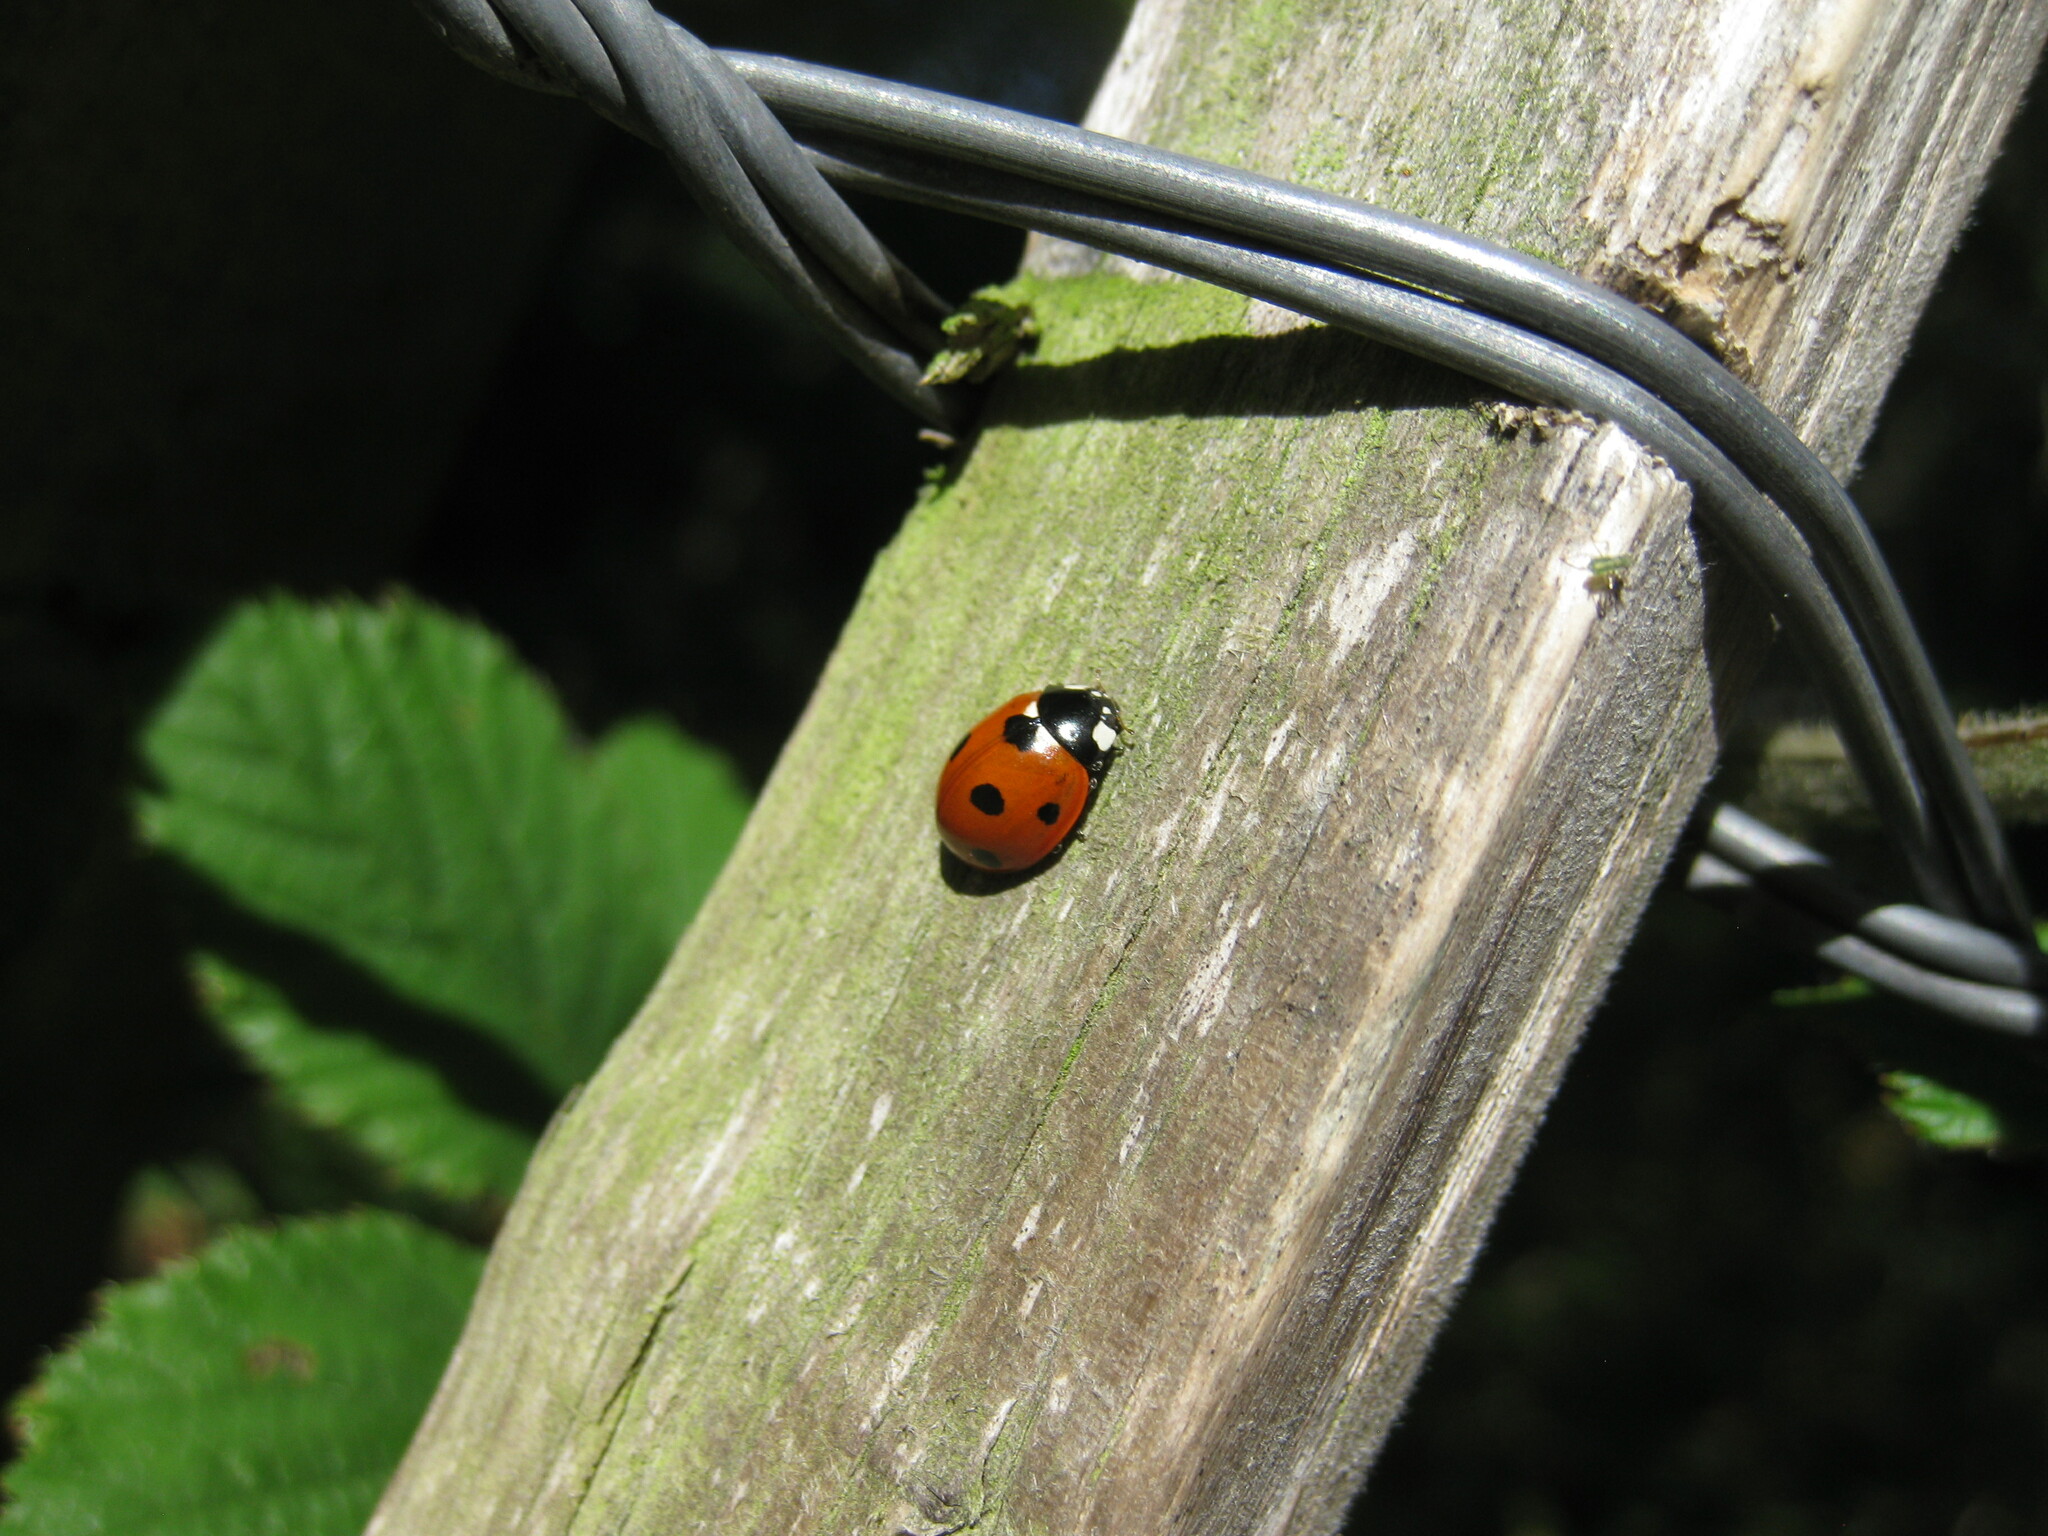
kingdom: Animalia
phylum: Arthropoda
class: Insecta
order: Coleoptera
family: Coccinellidae
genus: Coccinella
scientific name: Coccinella septempunctata
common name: Sevenspotted lady beetle
